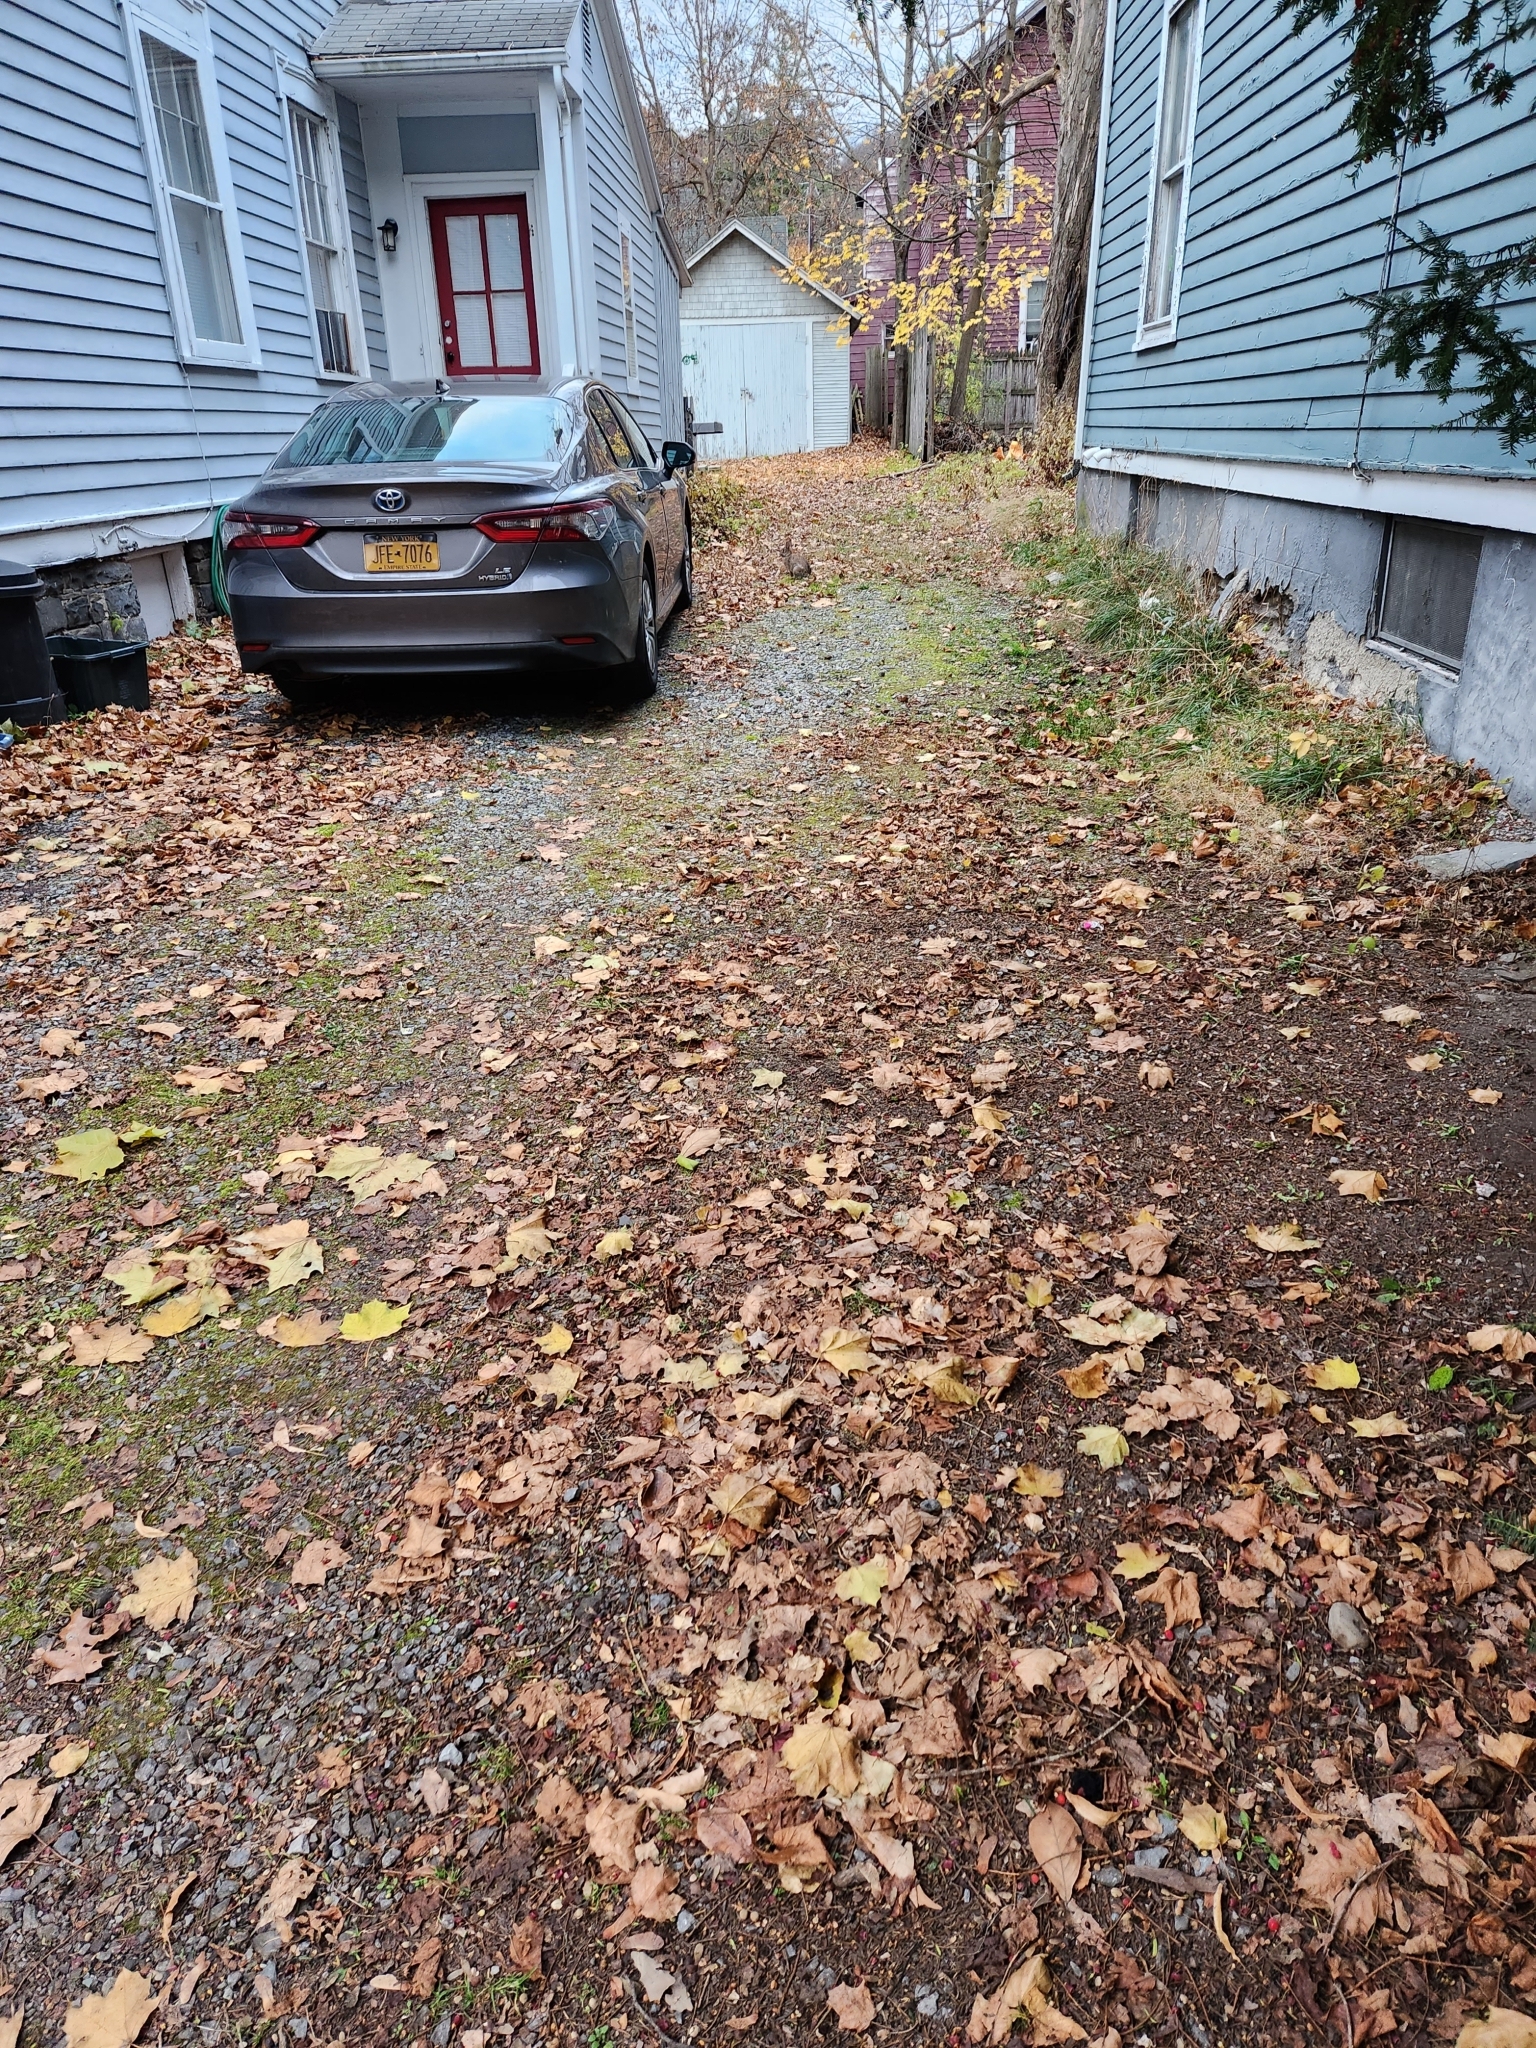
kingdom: Animalia
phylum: Chordata
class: Mammalia
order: Lagomorpha
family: Leporidae
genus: Sylvilagus
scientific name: Sylvilagus floridanus
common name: Eastern cottontail
